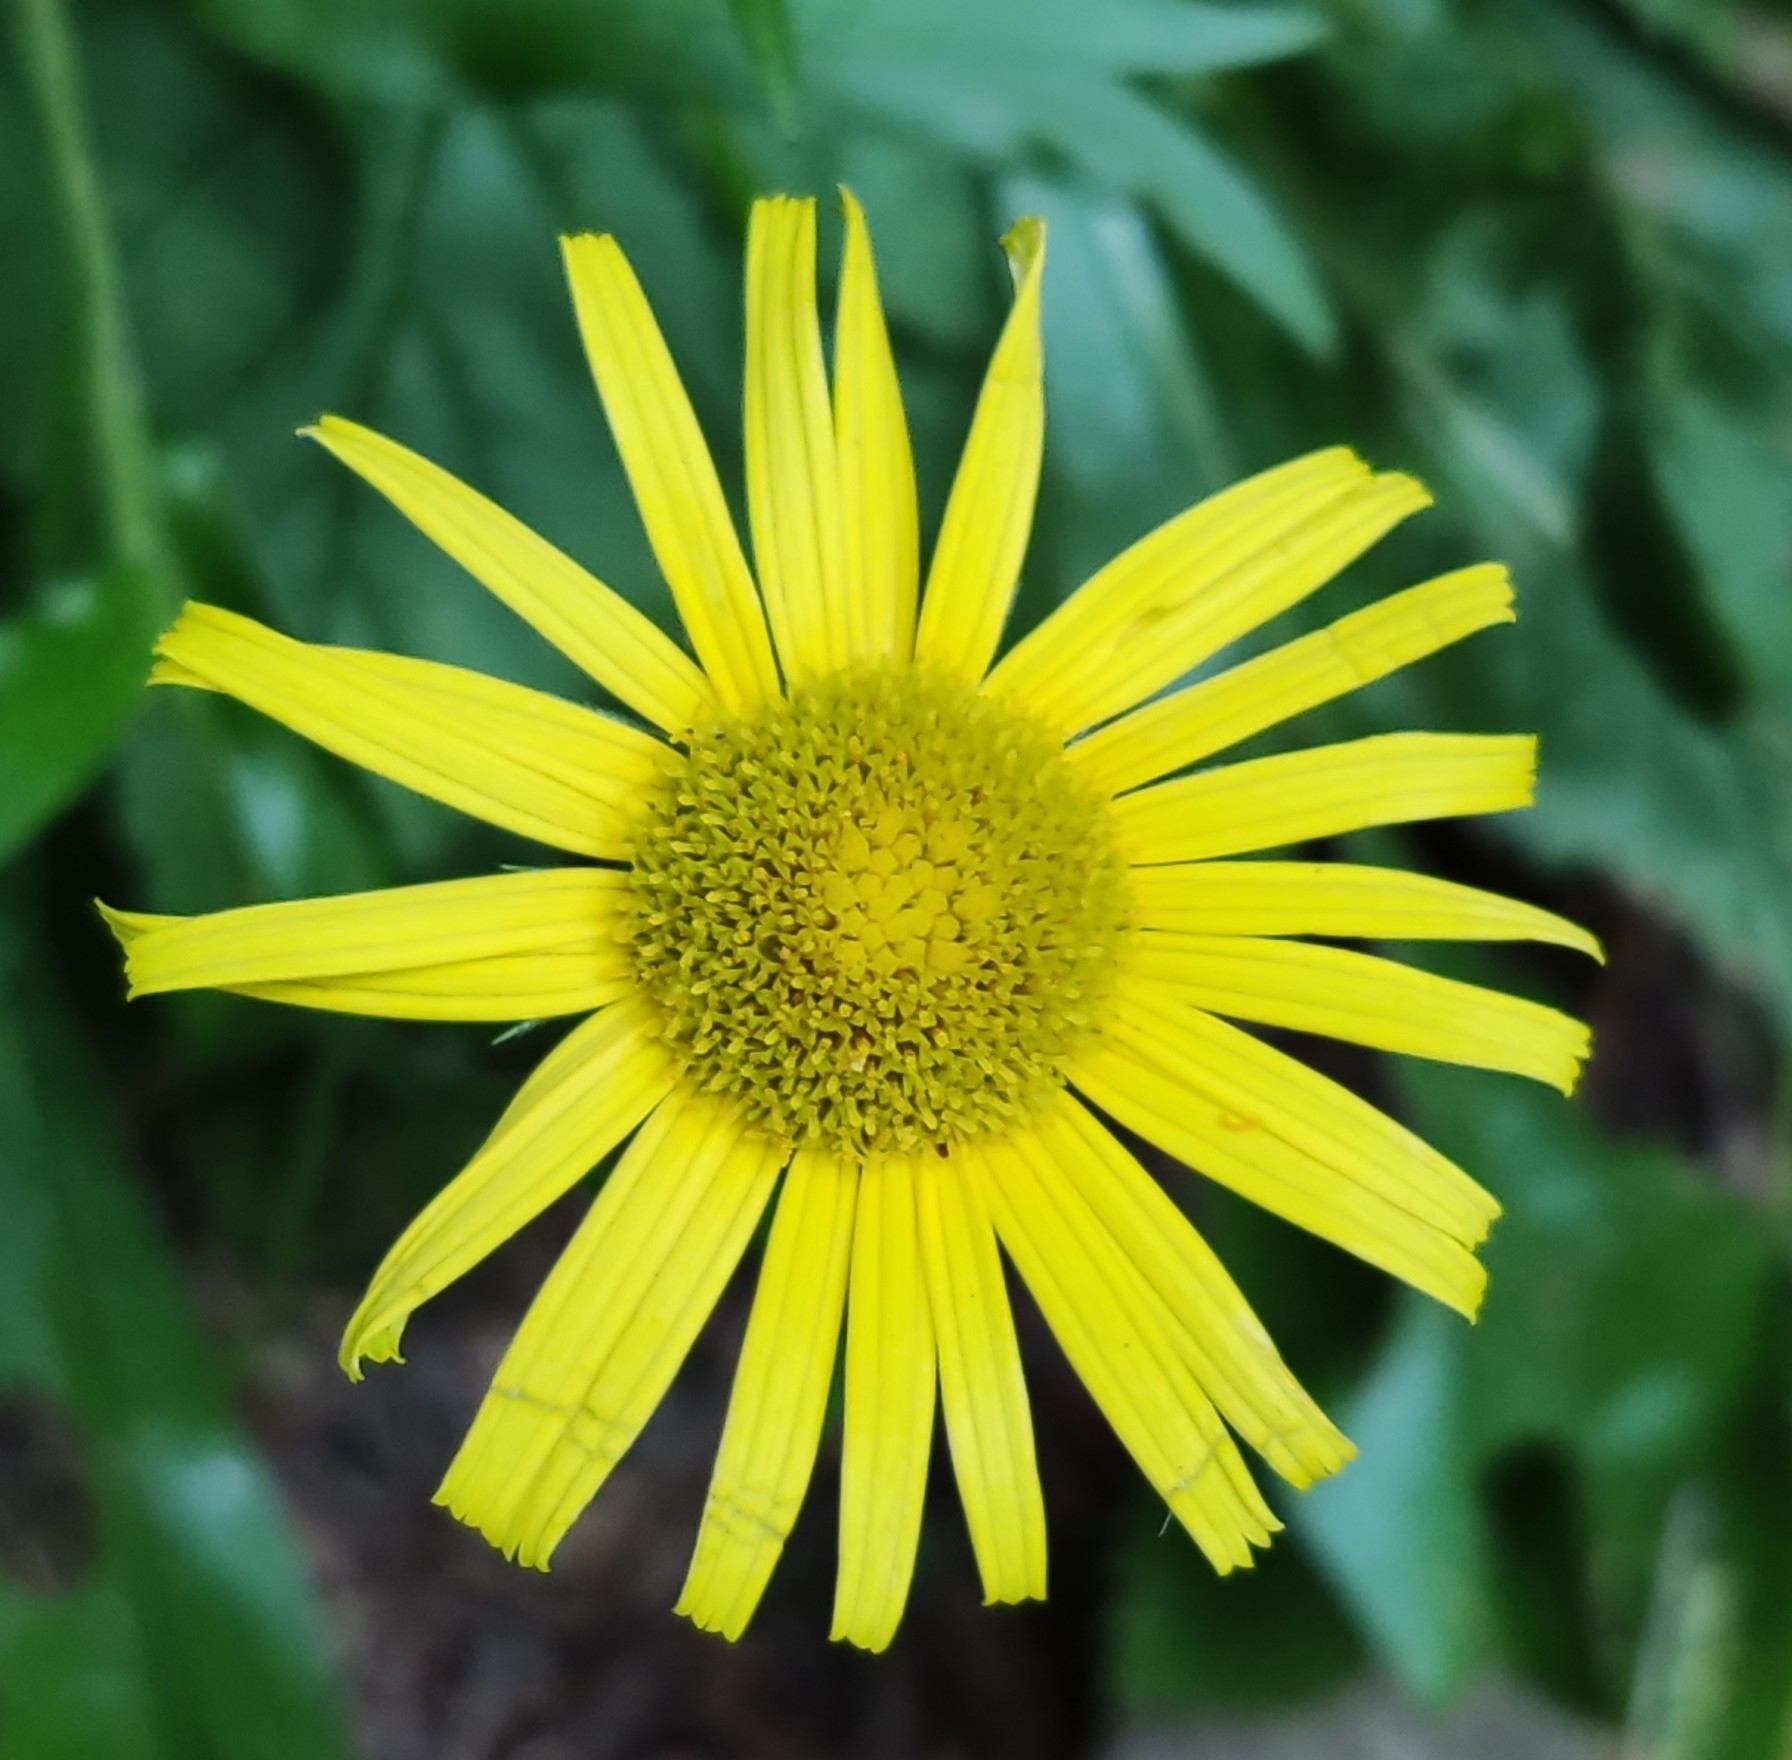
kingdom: Plantae
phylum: Tracheophyta
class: Magnoliopsida
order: Asterales
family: Asteraceae
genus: Buphthalmum
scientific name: Buphthalmum salicifolium
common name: Willow-leaved yellow-oxeye
